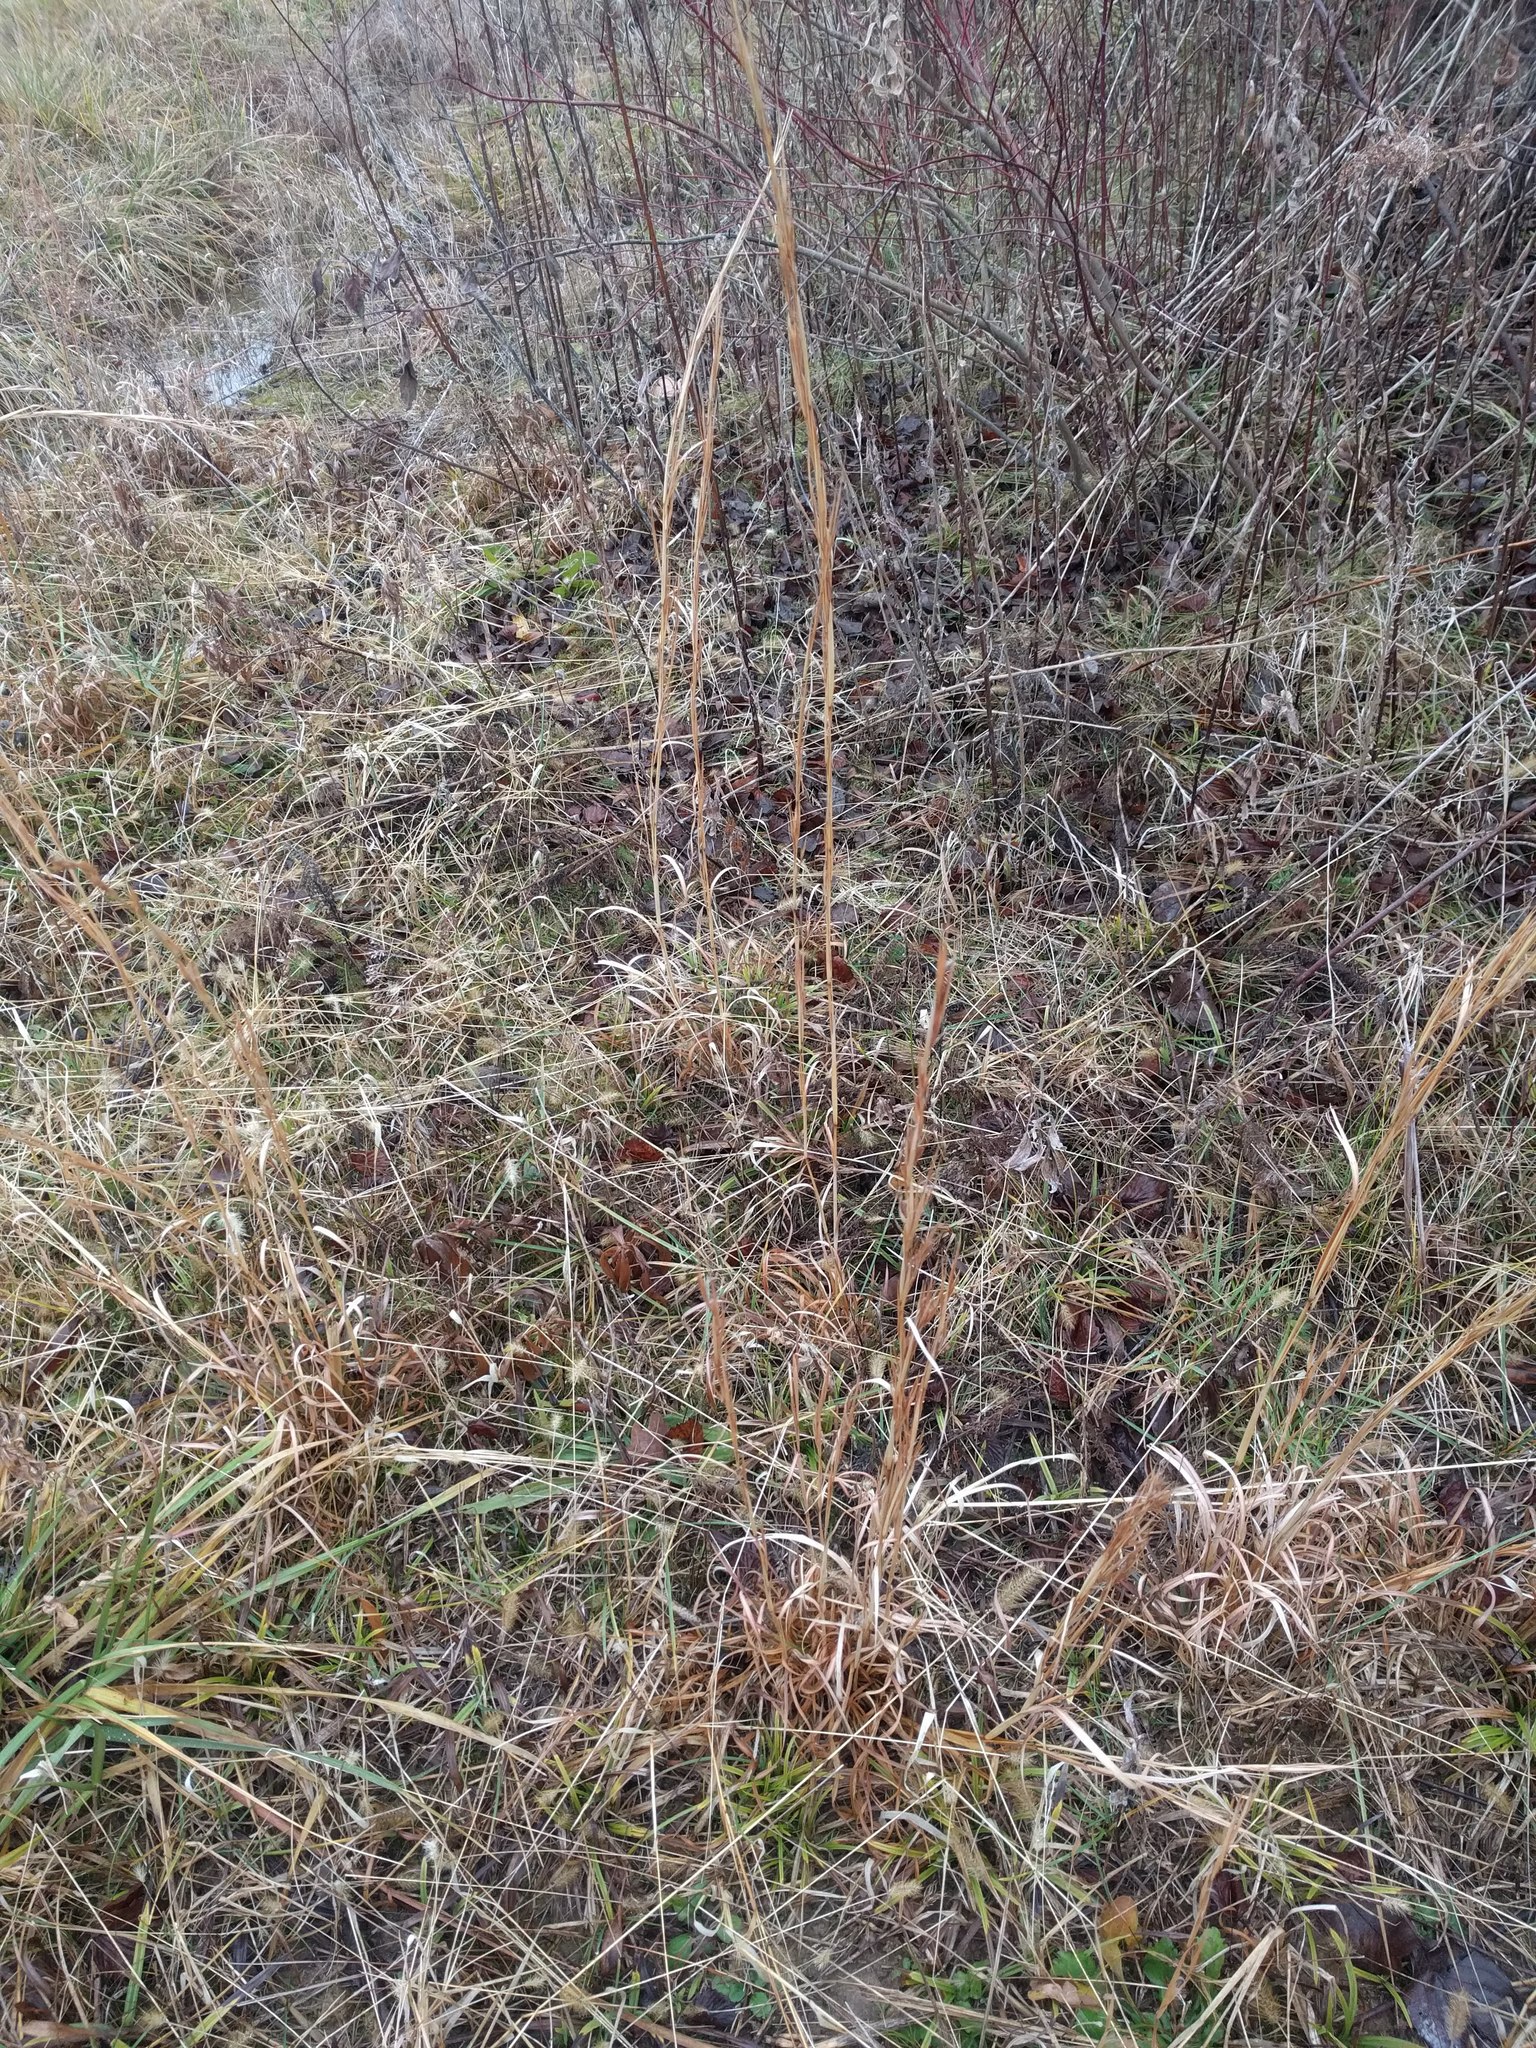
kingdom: Plantae
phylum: Tracheophyta
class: Liliopsida
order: Poales
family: Poaceae
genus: Andropogon
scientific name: Andropogon virginicus
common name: Broomsedge bluestem
